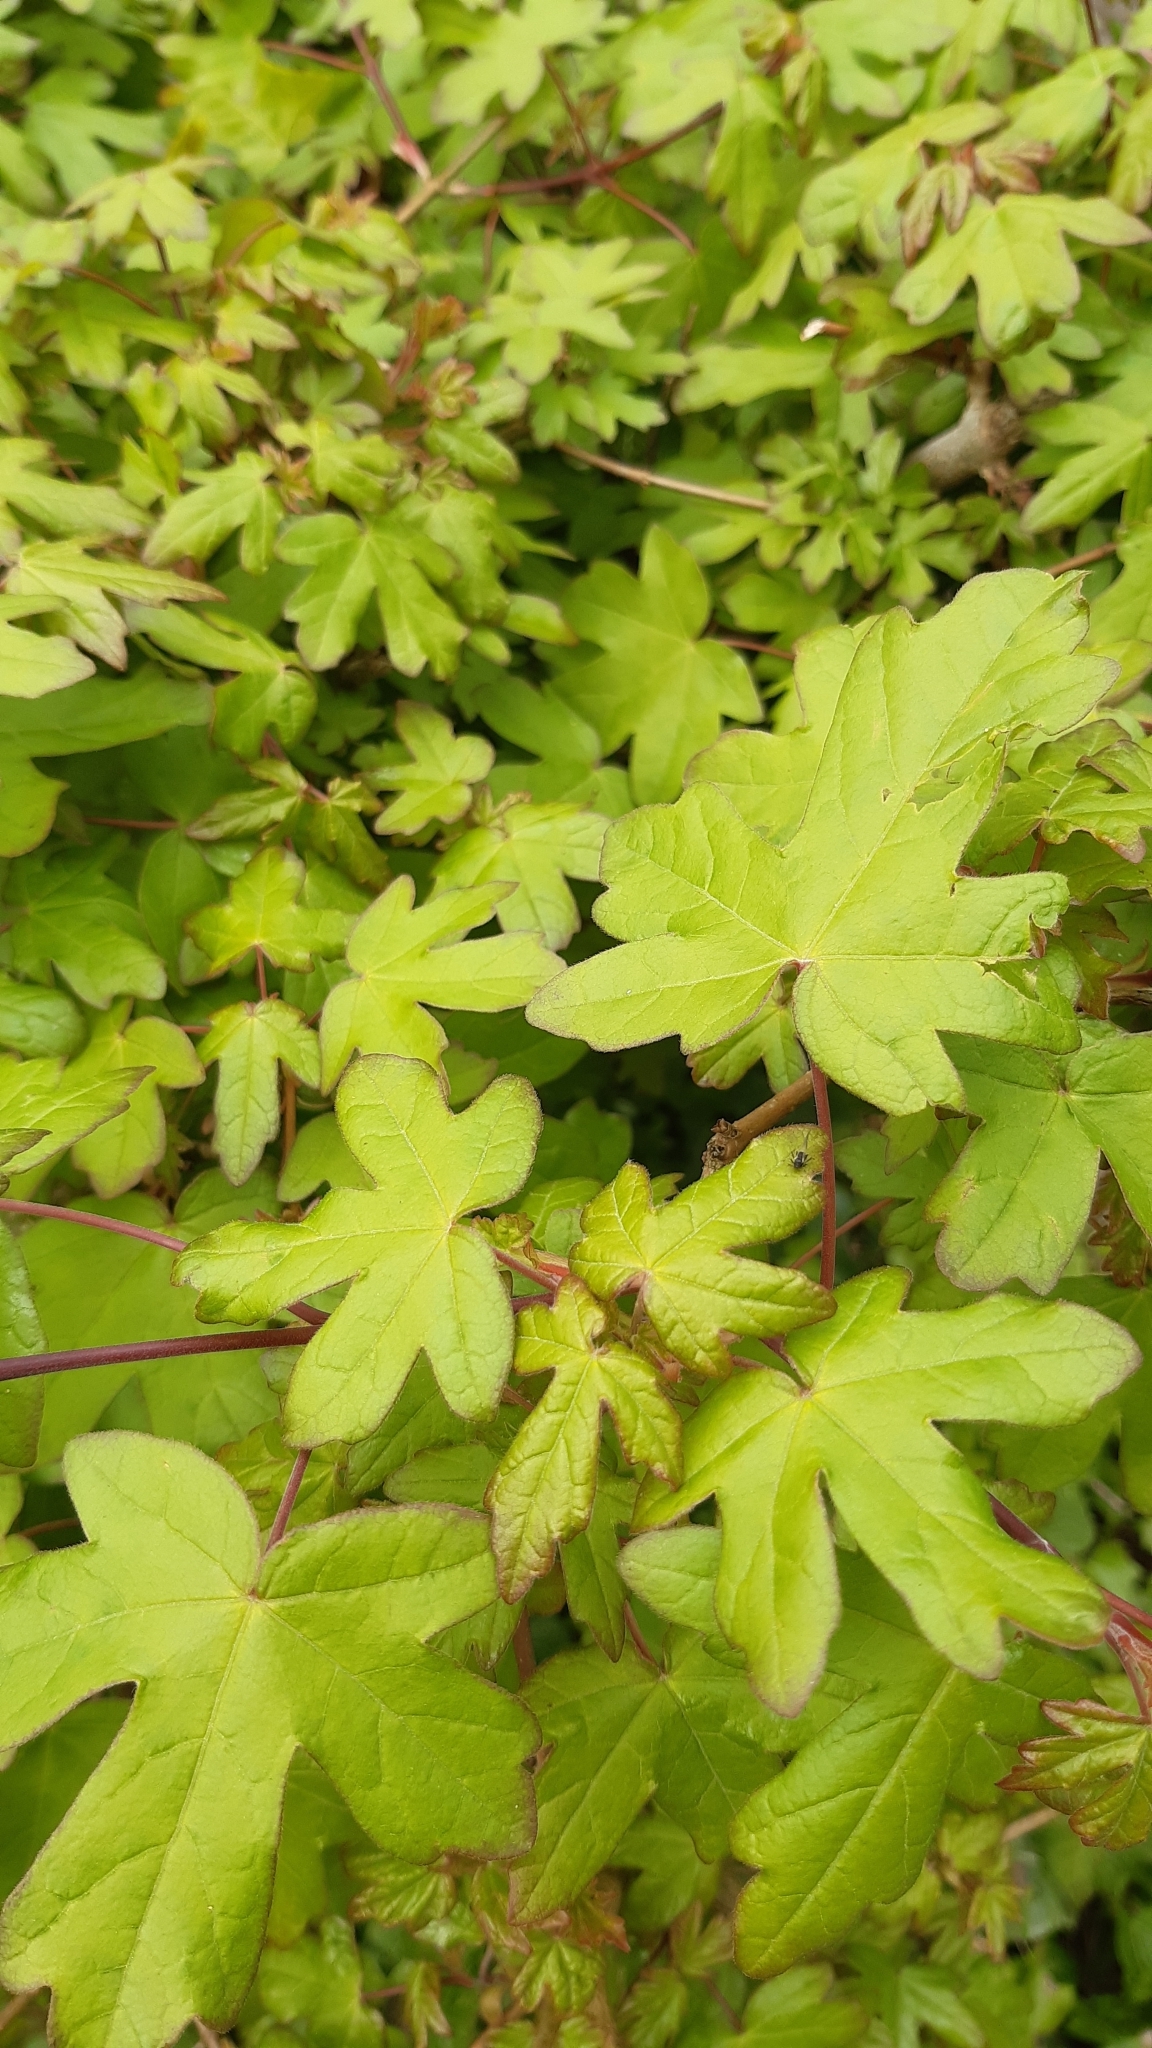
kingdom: Plantae
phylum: Tracheophyta
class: Magnoliopsida
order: Sapindales
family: Sapindaceae
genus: Acer
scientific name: Acer campestre
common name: Field maple
